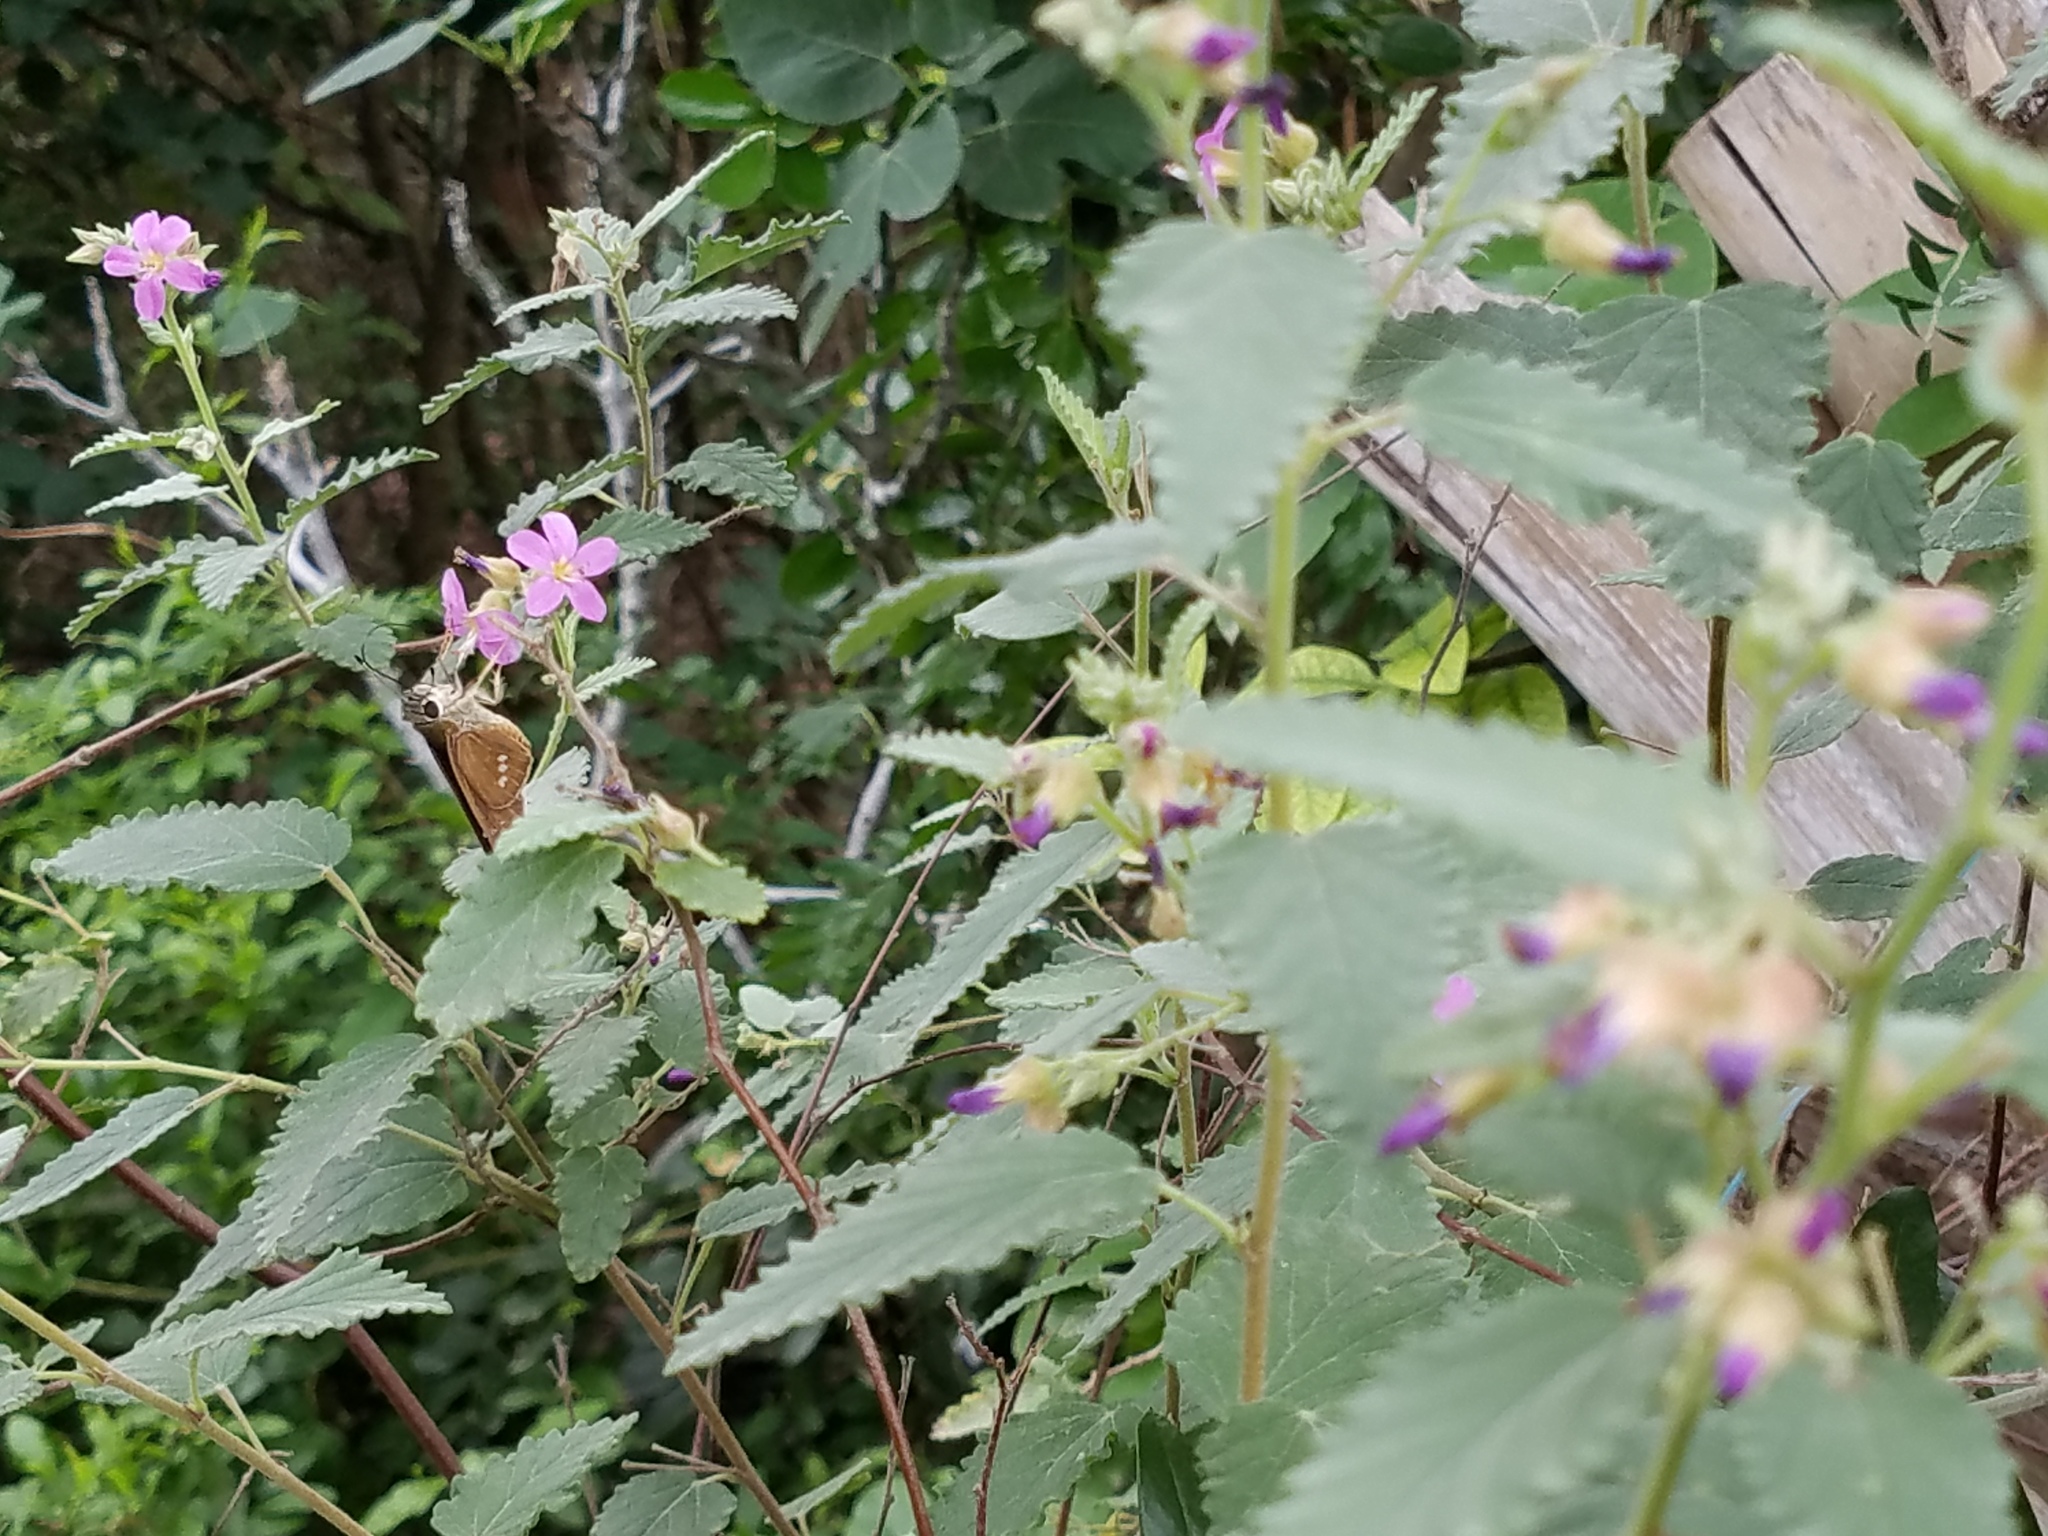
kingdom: Plantae
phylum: Tracheophyta
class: Magnoliopsida
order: Malvales
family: Malvaceae
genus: Melochia
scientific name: Melochia tomentosa
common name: Black torch
